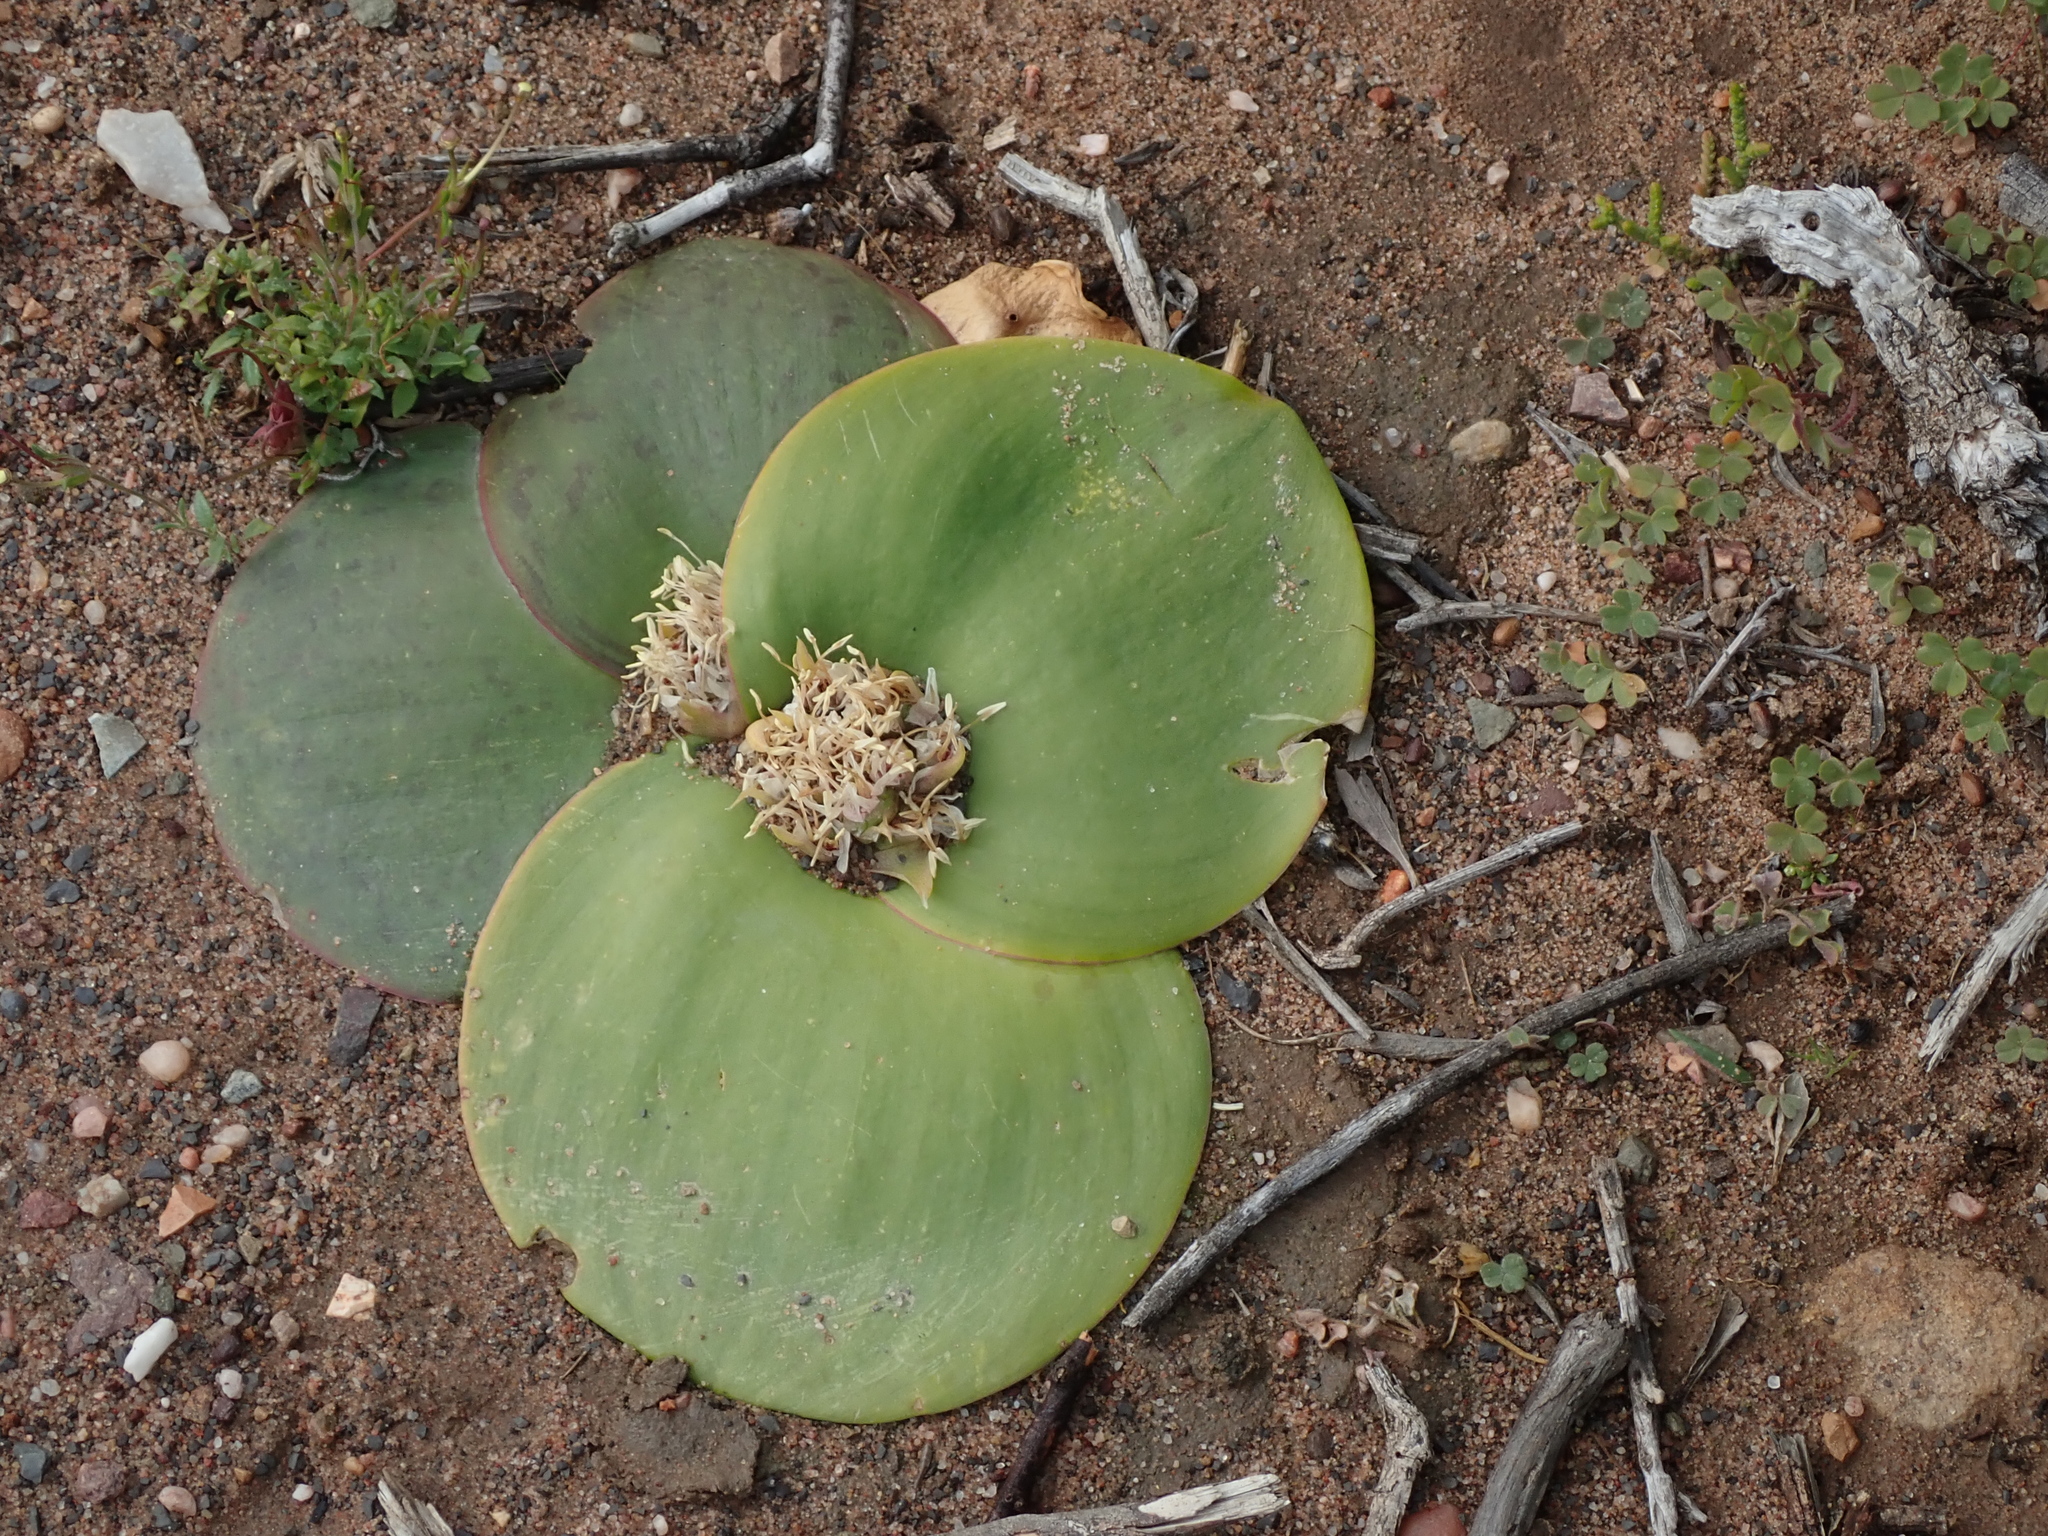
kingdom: Plantae
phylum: Tracheophyta
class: Liliopsida
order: Asparagales
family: Asparagaceae
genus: Massonia
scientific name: Massonia depressa
